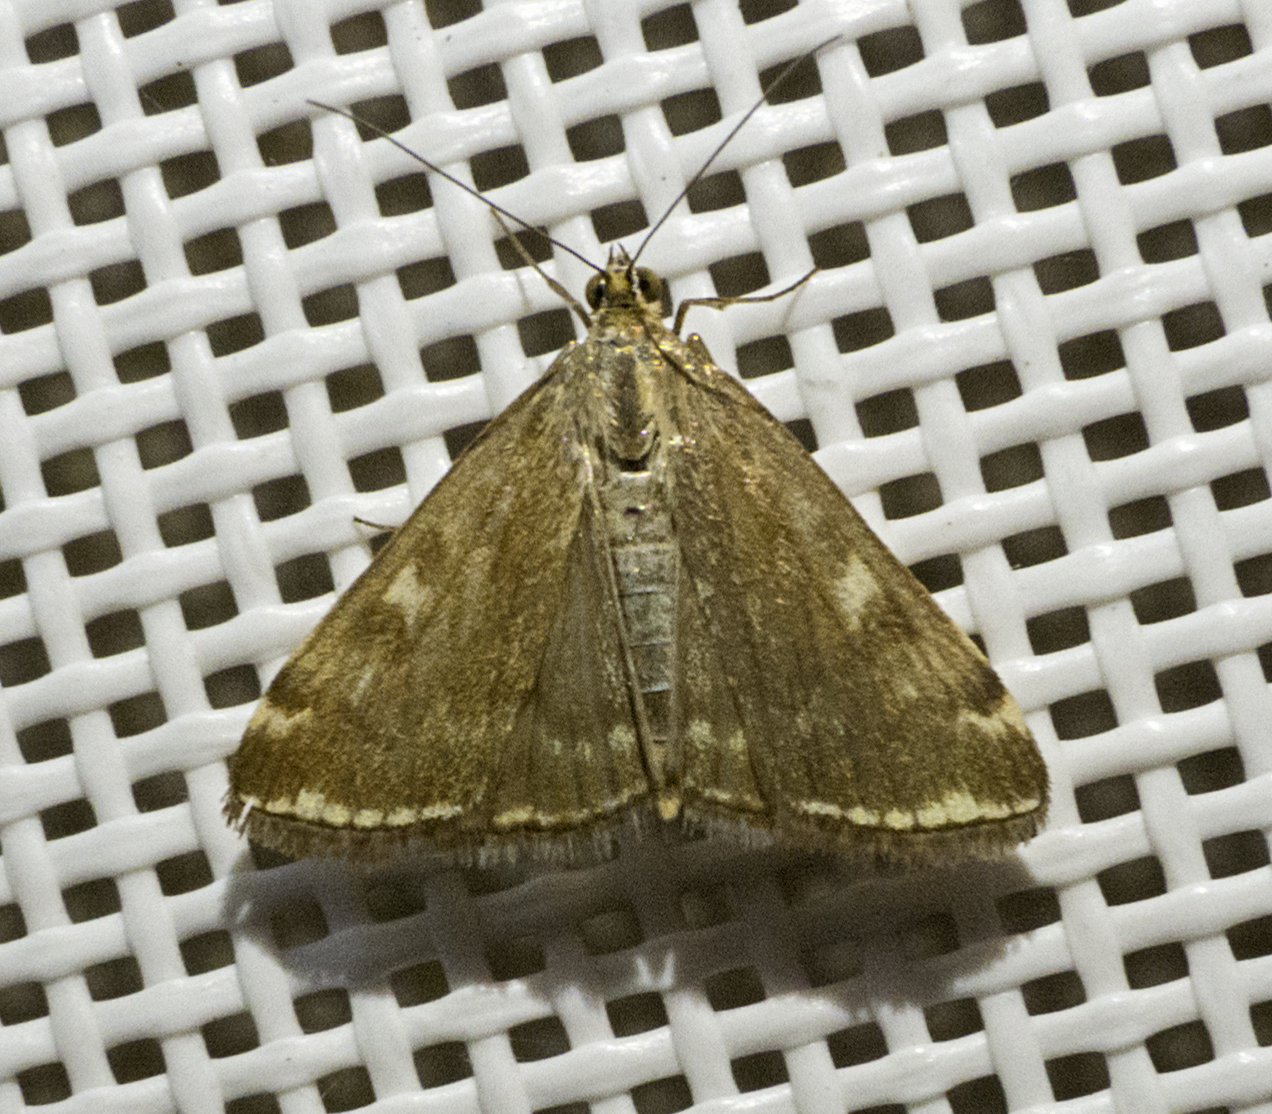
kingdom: Animalia
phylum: Arthropoda
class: Insecta
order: Lepidoptera
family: Crambidae
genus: Loxostege
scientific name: Loxostege sticticalis
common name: Crambid moth
